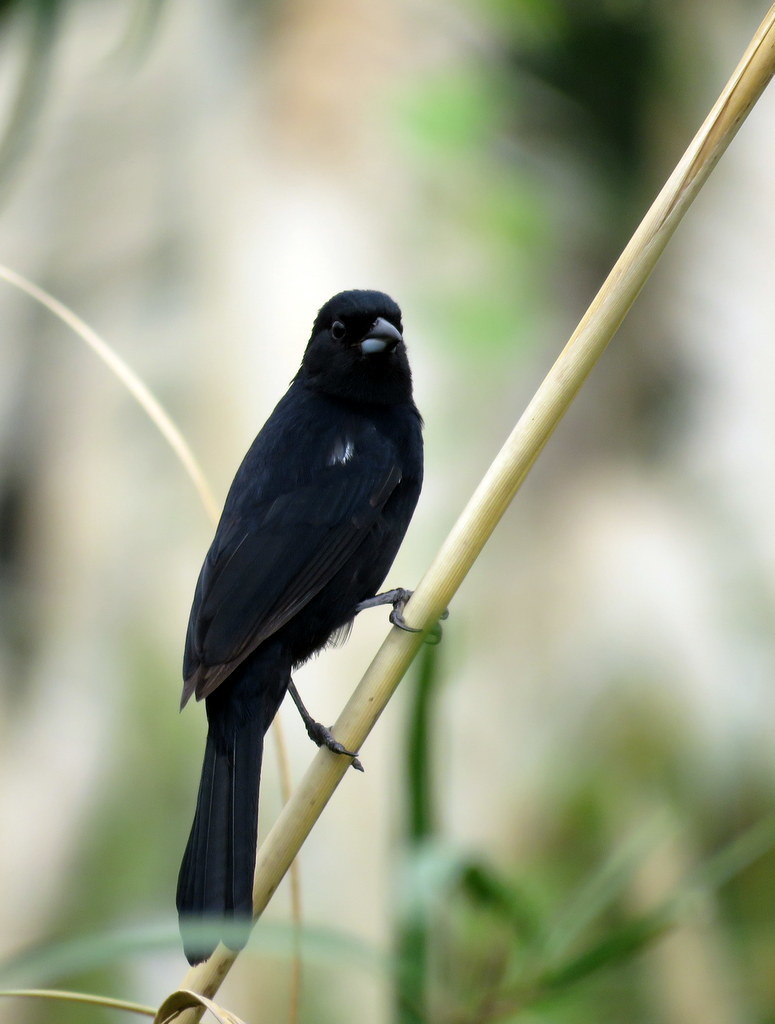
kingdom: Animalia
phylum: Chordata
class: Aves
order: Passeriformes
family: Thraupidae
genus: Tachyphonus
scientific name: Tachyphonus rufus
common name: White-lined tanager
